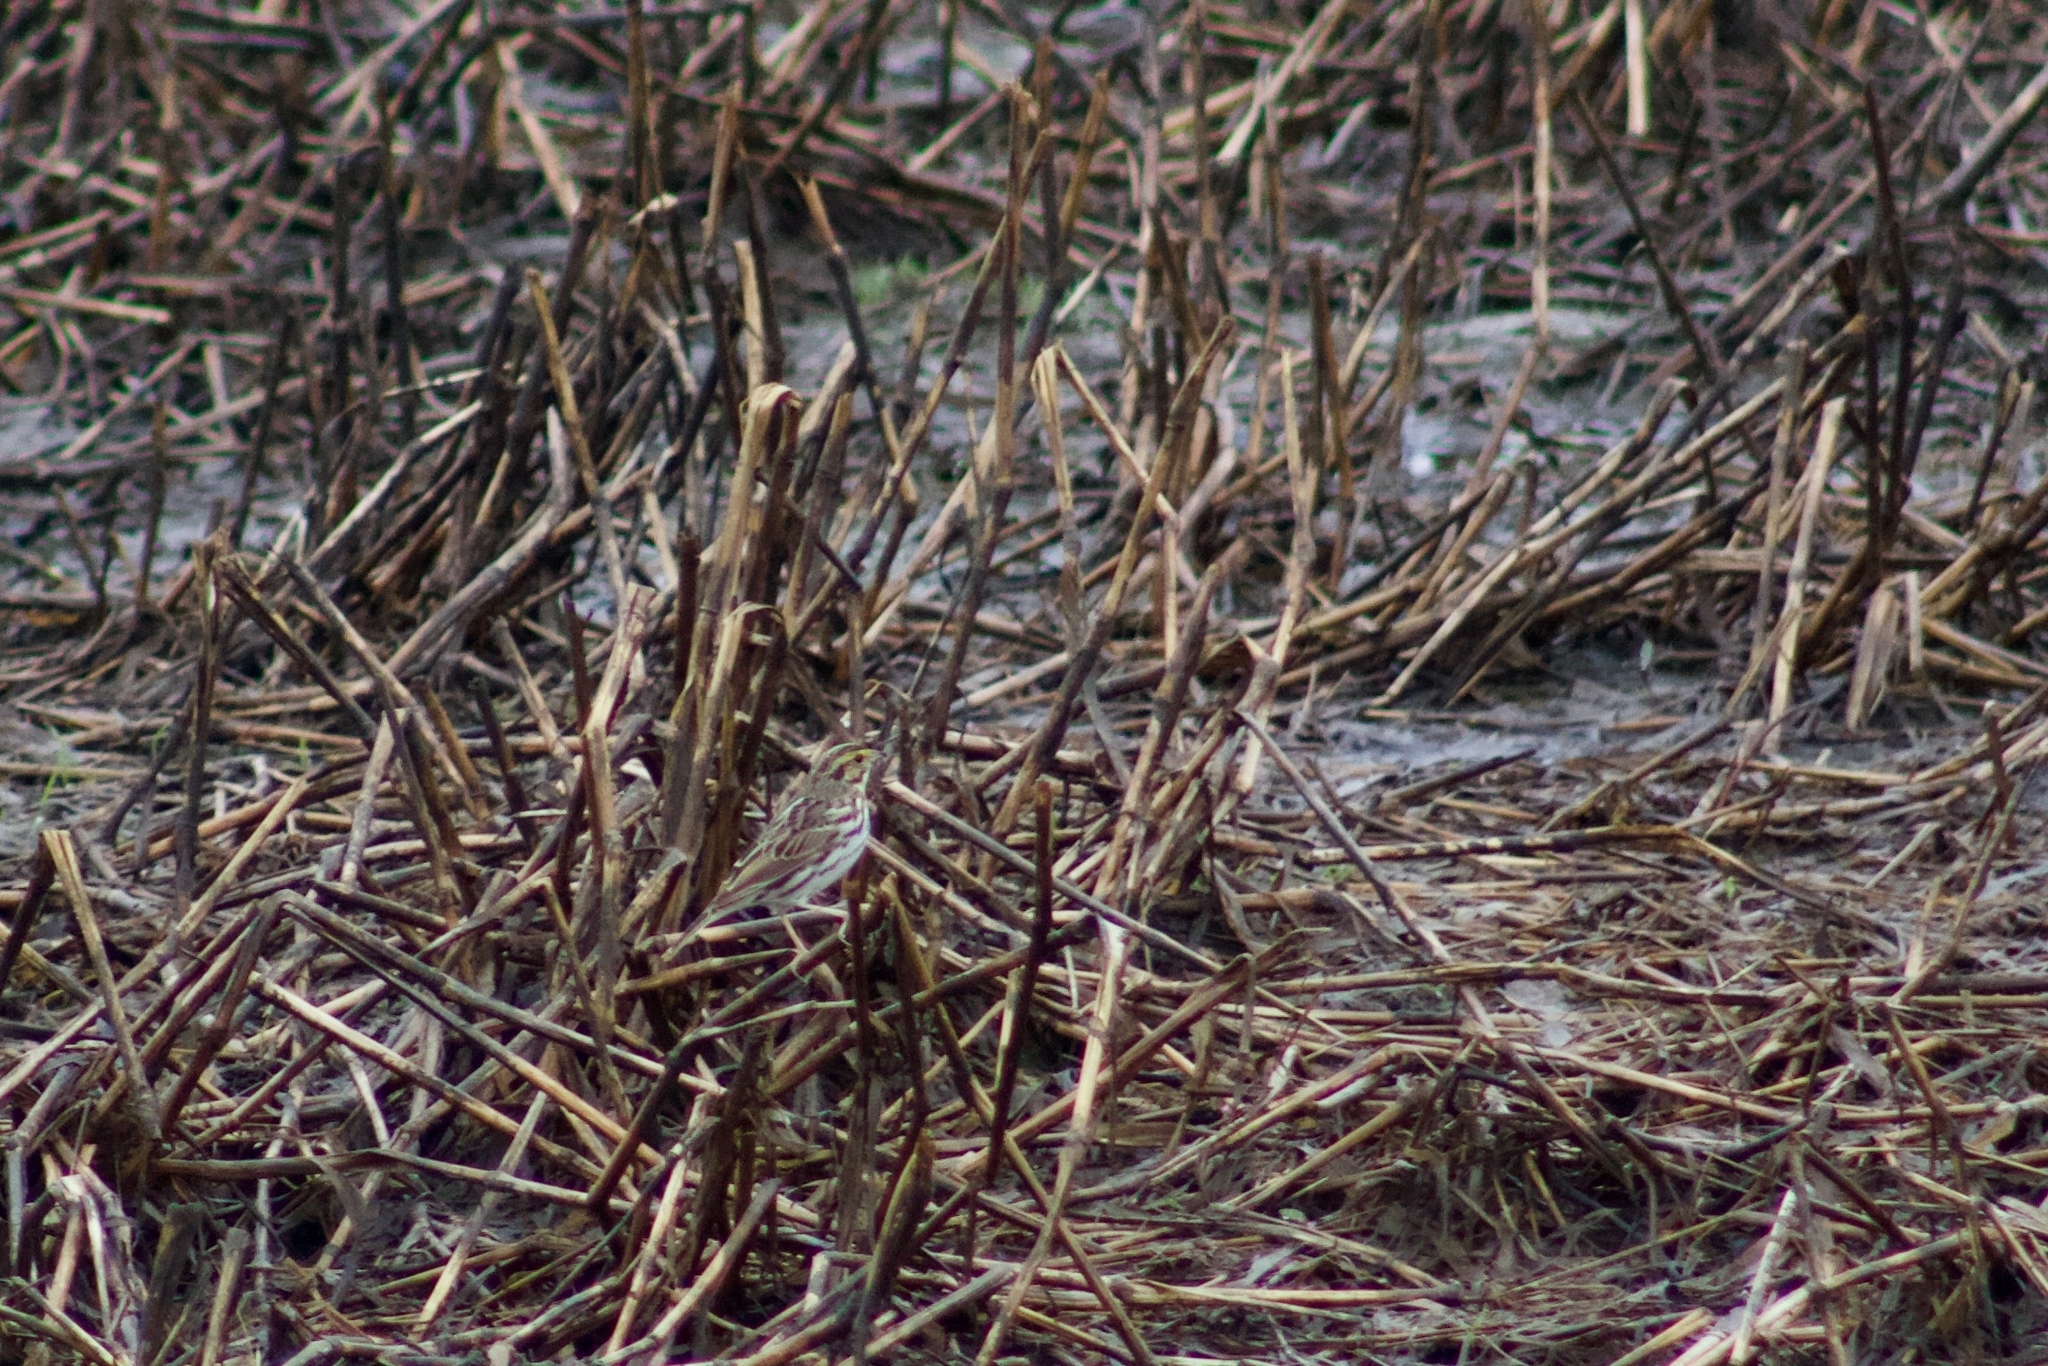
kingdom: Animalia
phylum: Chordata
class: Aves
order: Passeriformes
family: Passerellidae
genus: Passerculus
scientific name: Passerculus sandwichensis
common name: Savannah sparrow
